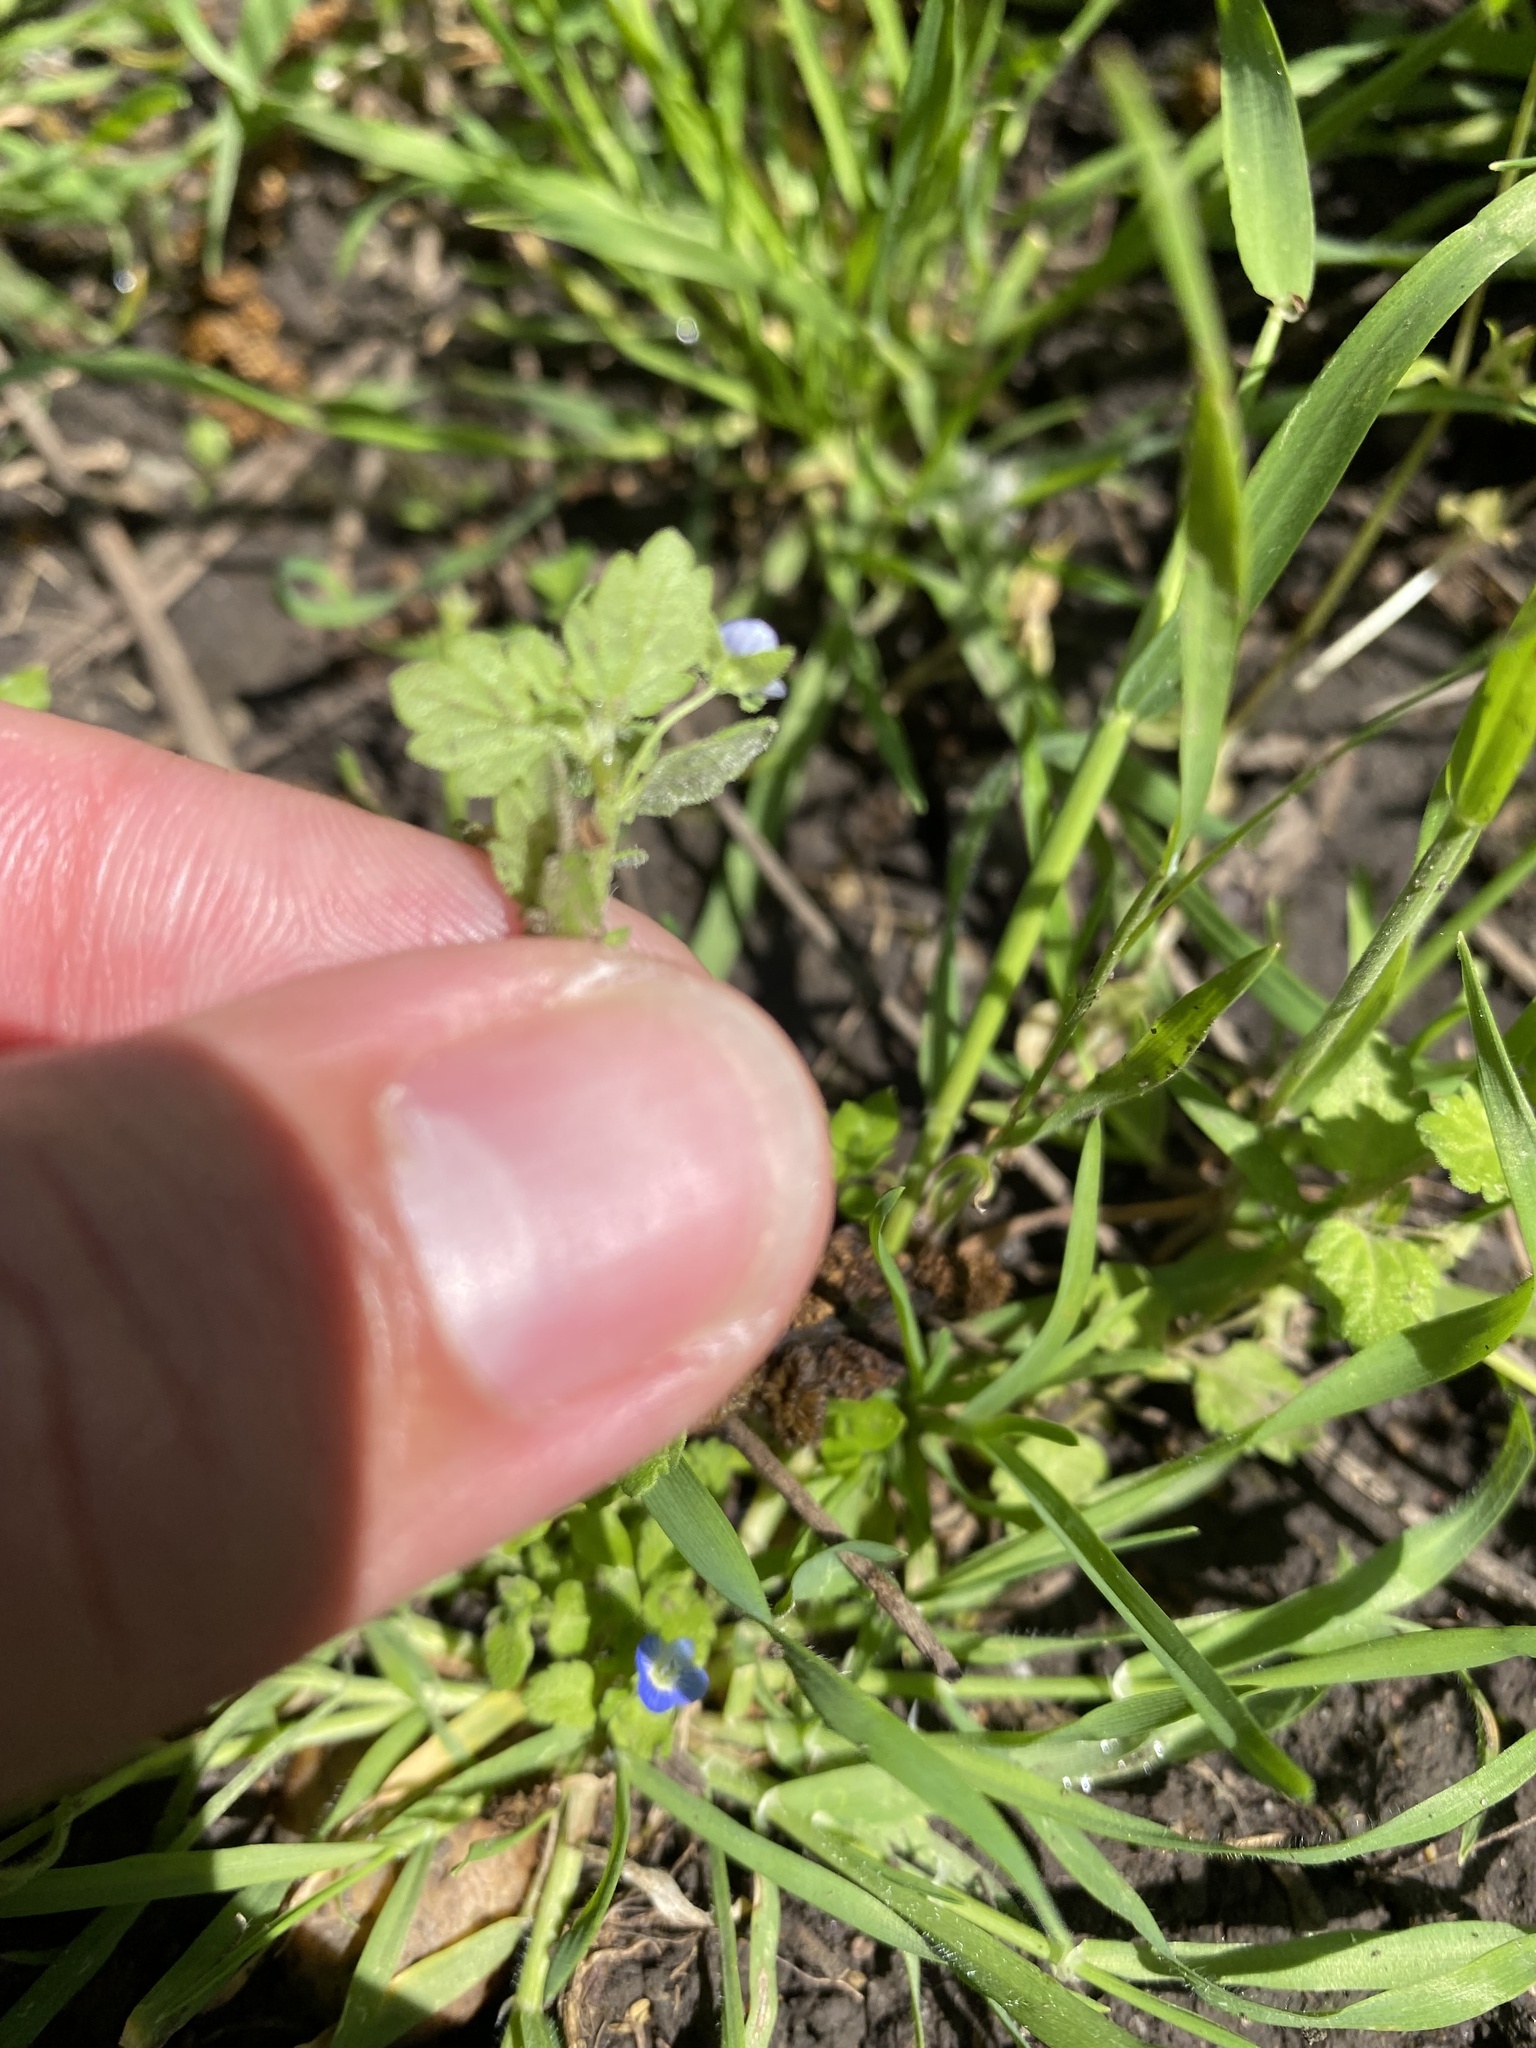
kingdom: Plantae
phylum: Tracheophyta
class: Magnoliopsida
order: Lamiales
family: Plantaginaceae
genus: Veronica
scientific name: Veronica polita
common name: Grey field-speedwell
